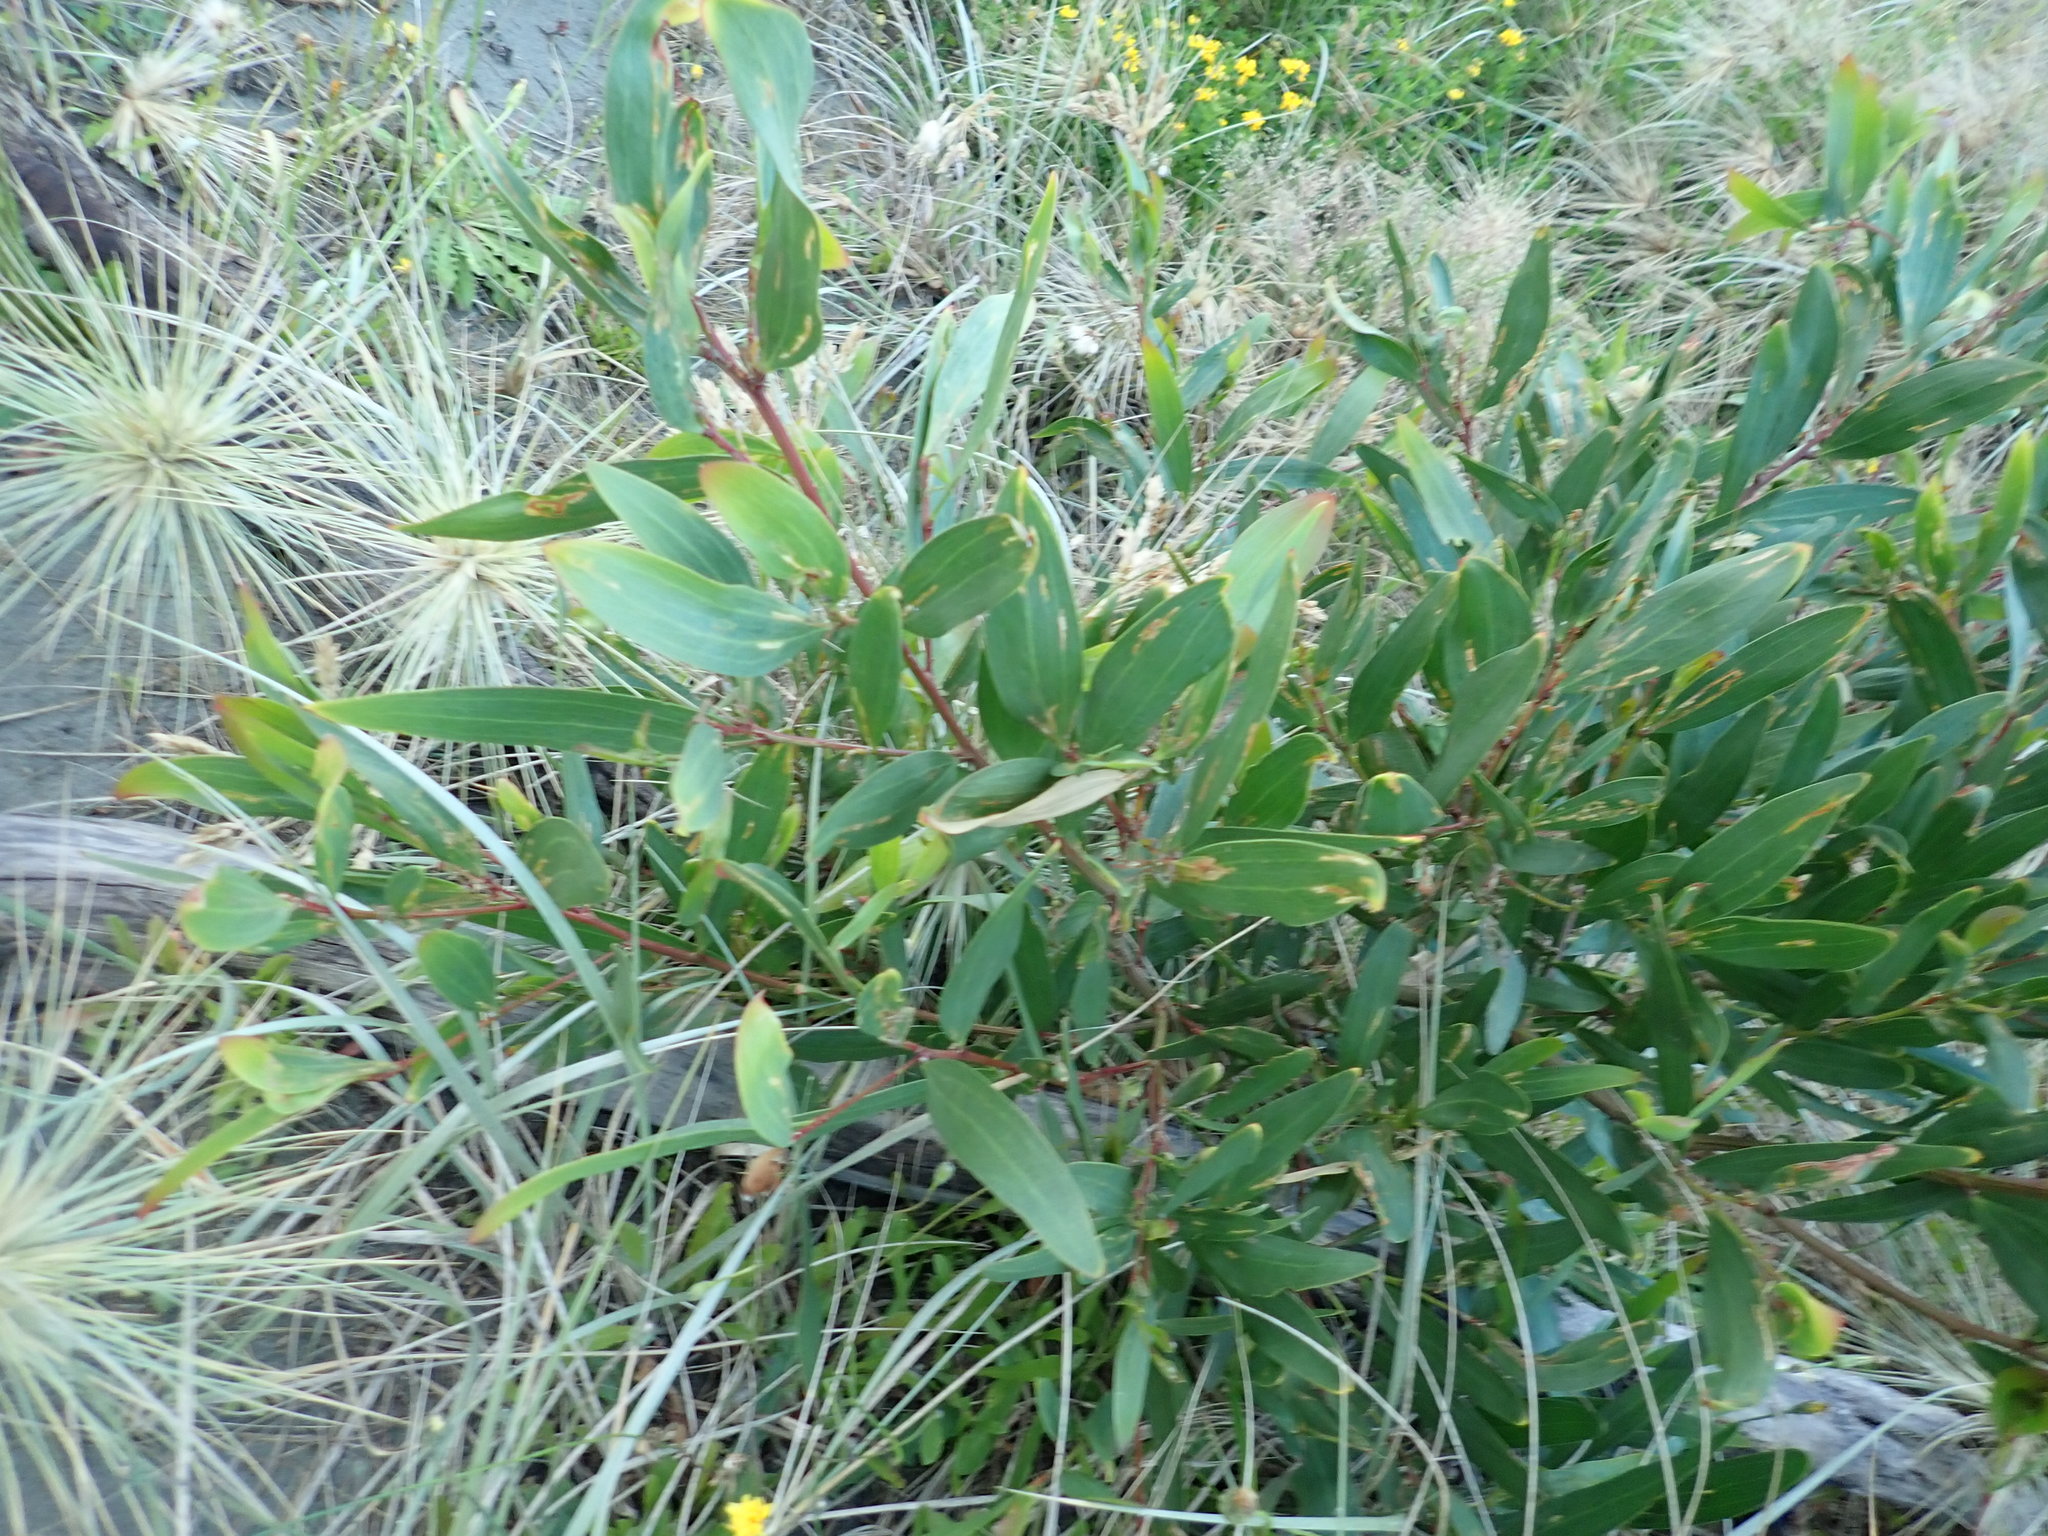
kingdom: Plantae
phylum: Tracheophyta
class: Magnoliopsida
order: Fabales
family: Fabaceae
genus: Acacia
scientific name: Acacia longifolia
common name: Sydney golden wattle
